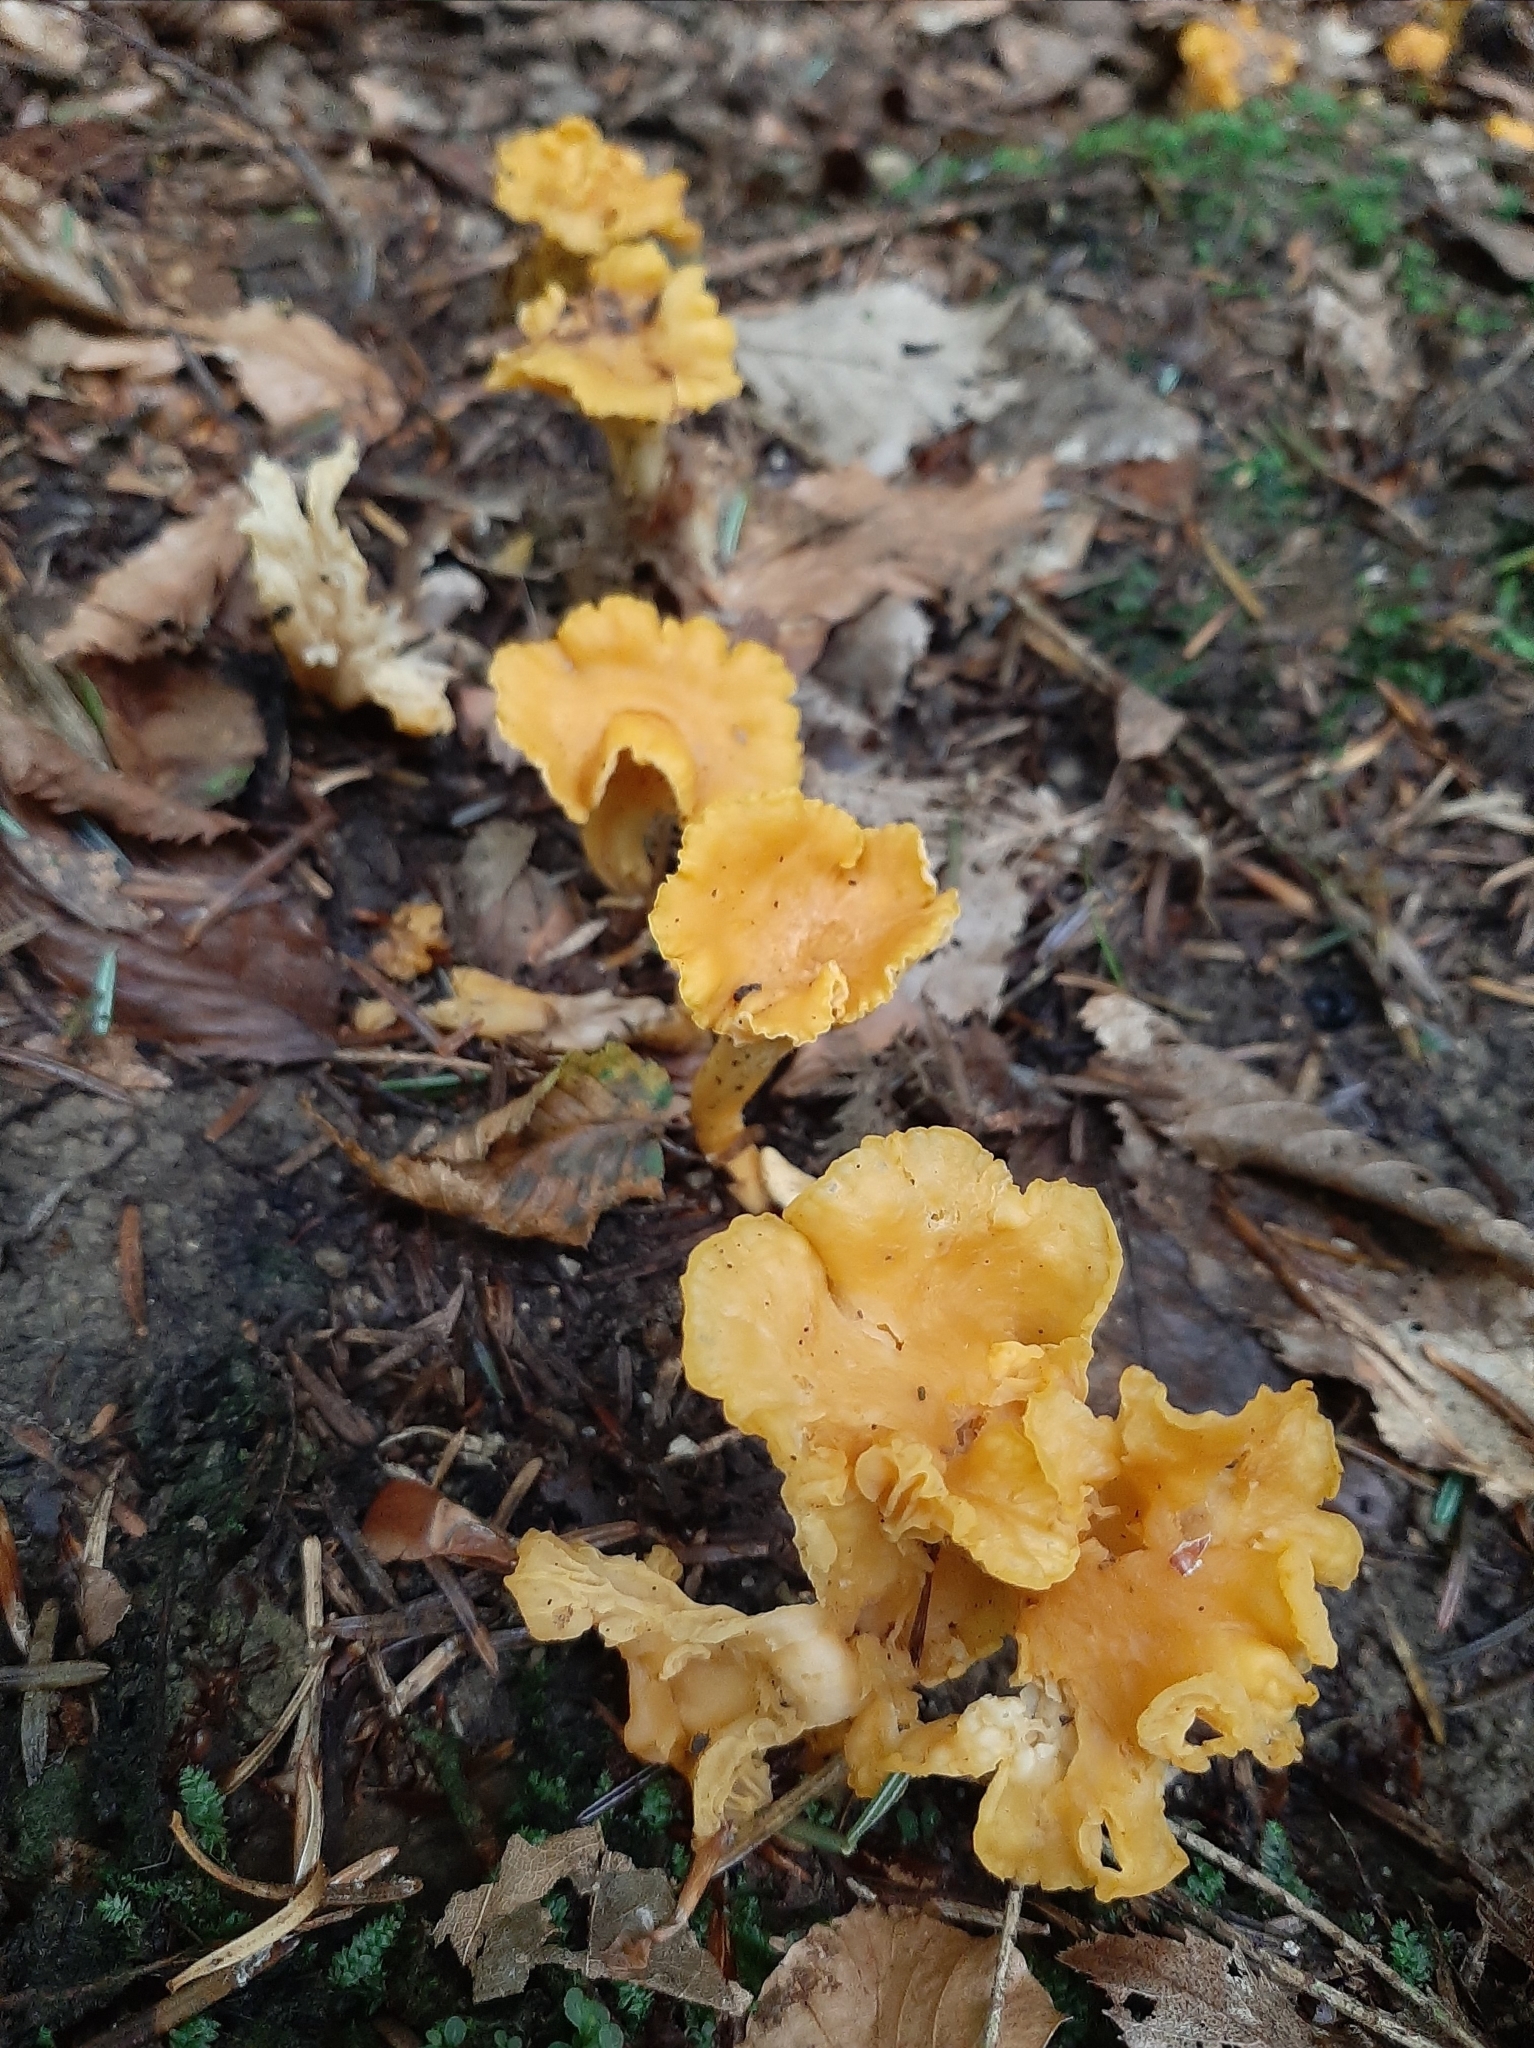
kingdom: Fungi
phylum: Basidiomycota
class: Agaricomycetes
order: Cantharellales
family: Hydnaceae
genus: Cantharellus
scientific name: Cantharellus cibarius
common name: Chanterelle
